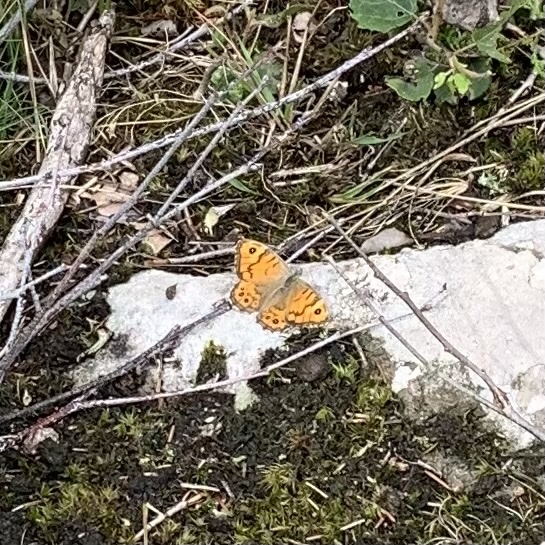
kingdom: Animalia
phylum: Arthropoda
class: Insecta
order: Lepidoptera
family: Nymphalidae
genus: Pararge
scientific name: Pararge Lasiommata megera
